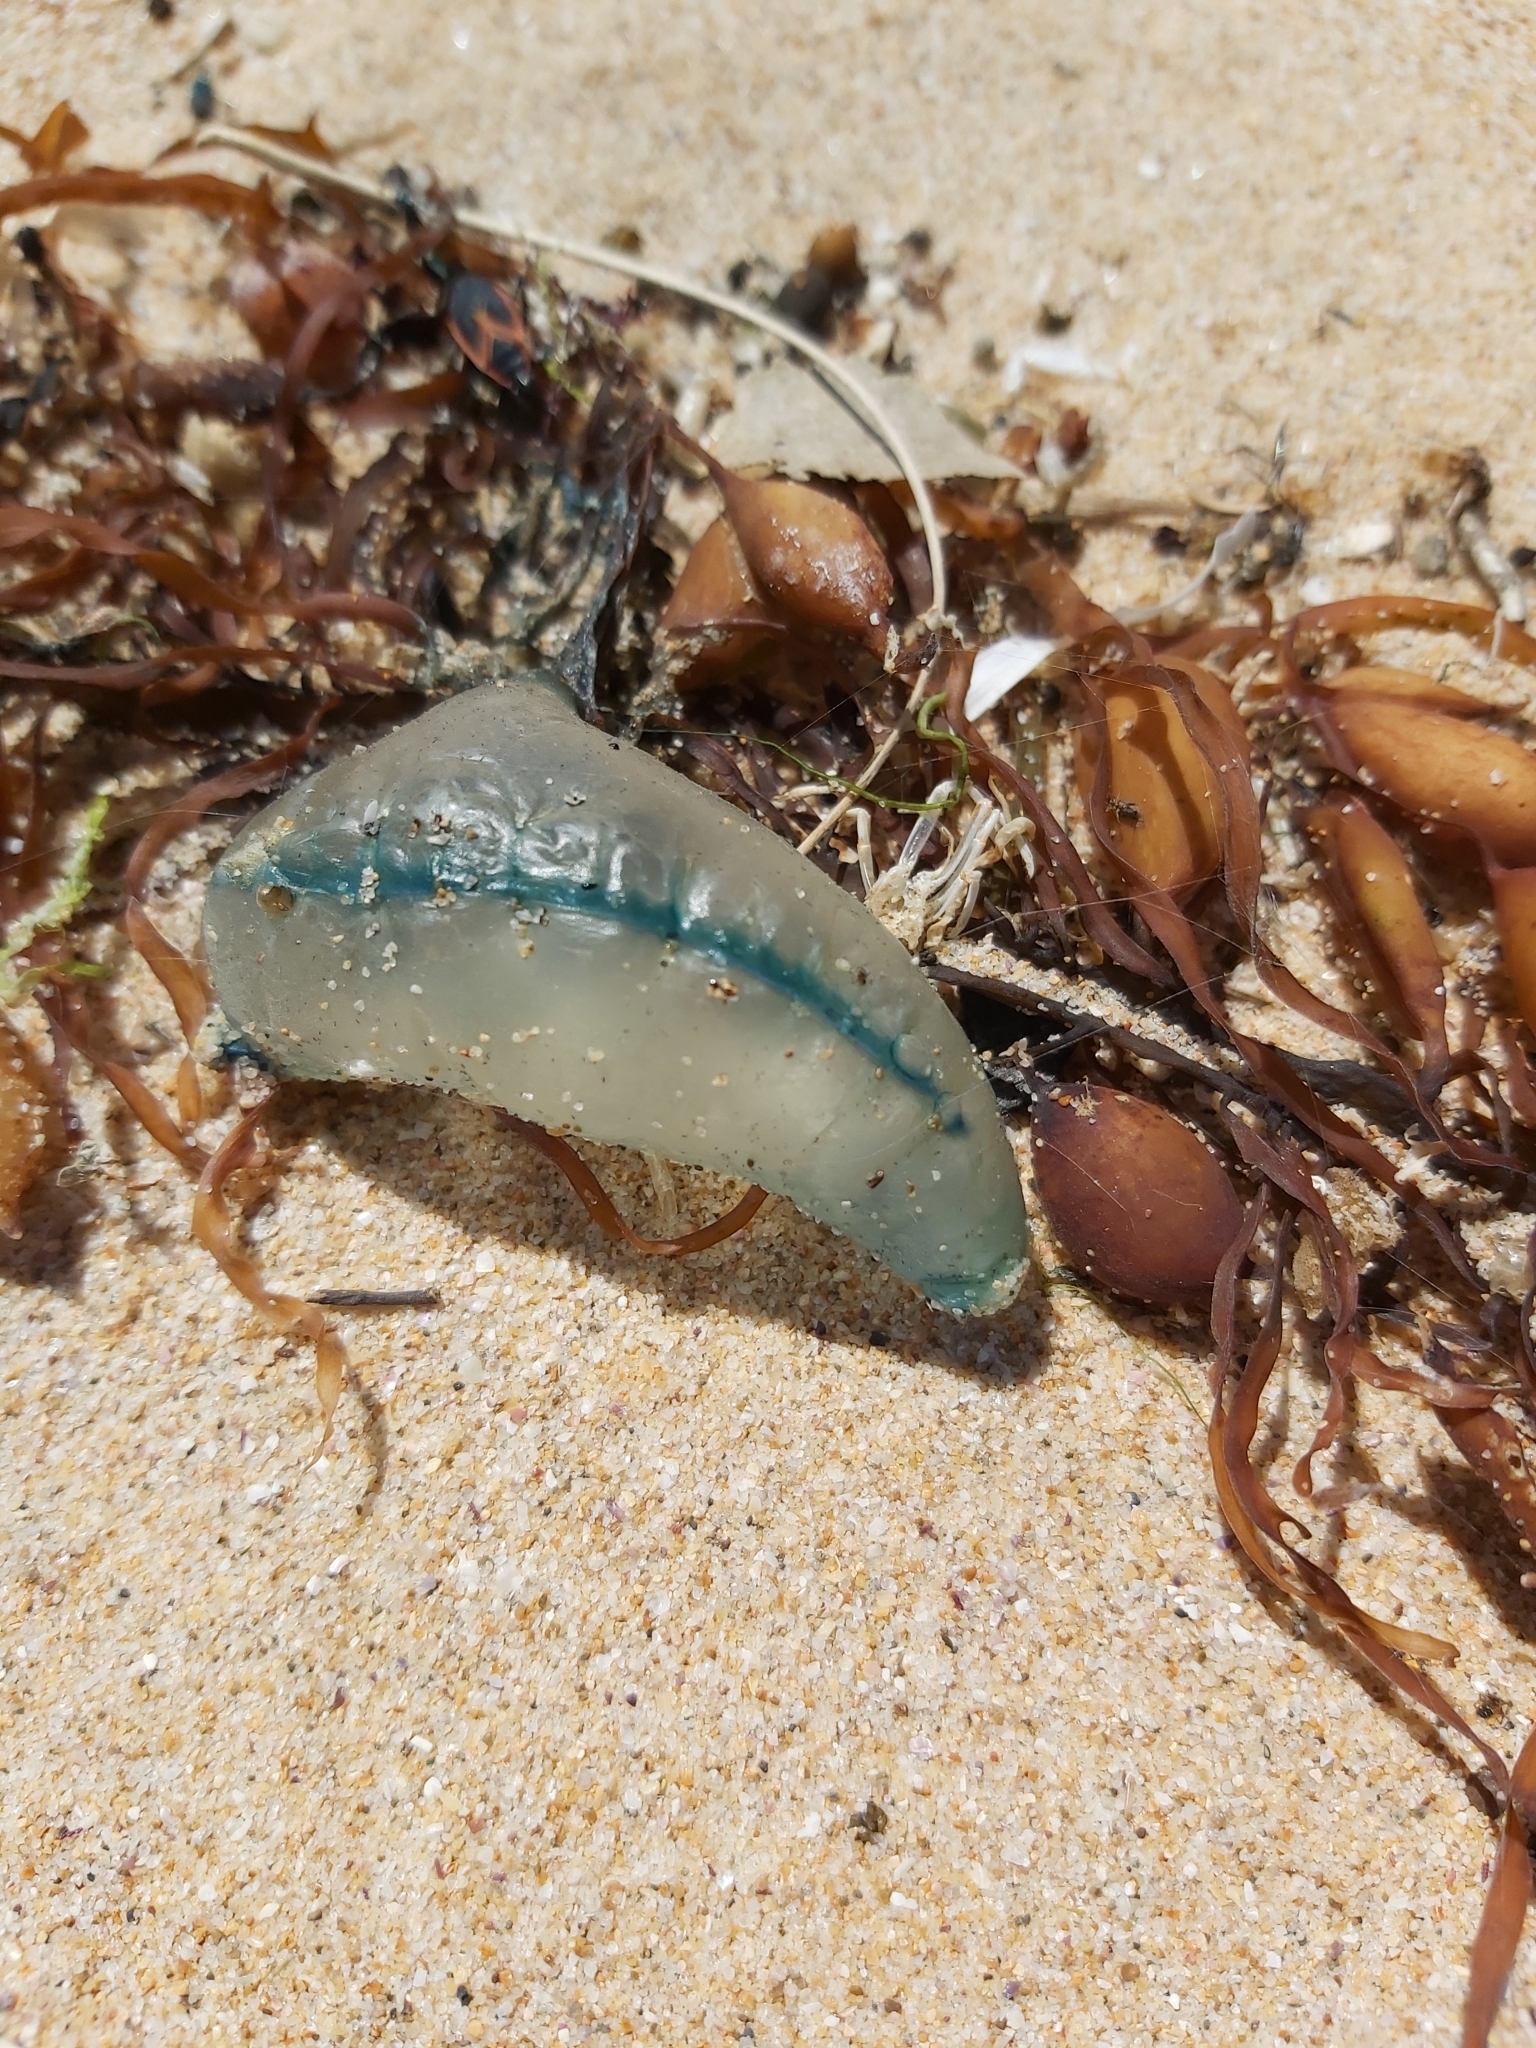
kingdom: Animalia
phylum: Cnidaria
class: Hydrozoa
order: Siphonophorae
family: Physaliidae
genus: Physalia
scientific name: Physalia physalis
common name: Portuguese man-of-war
